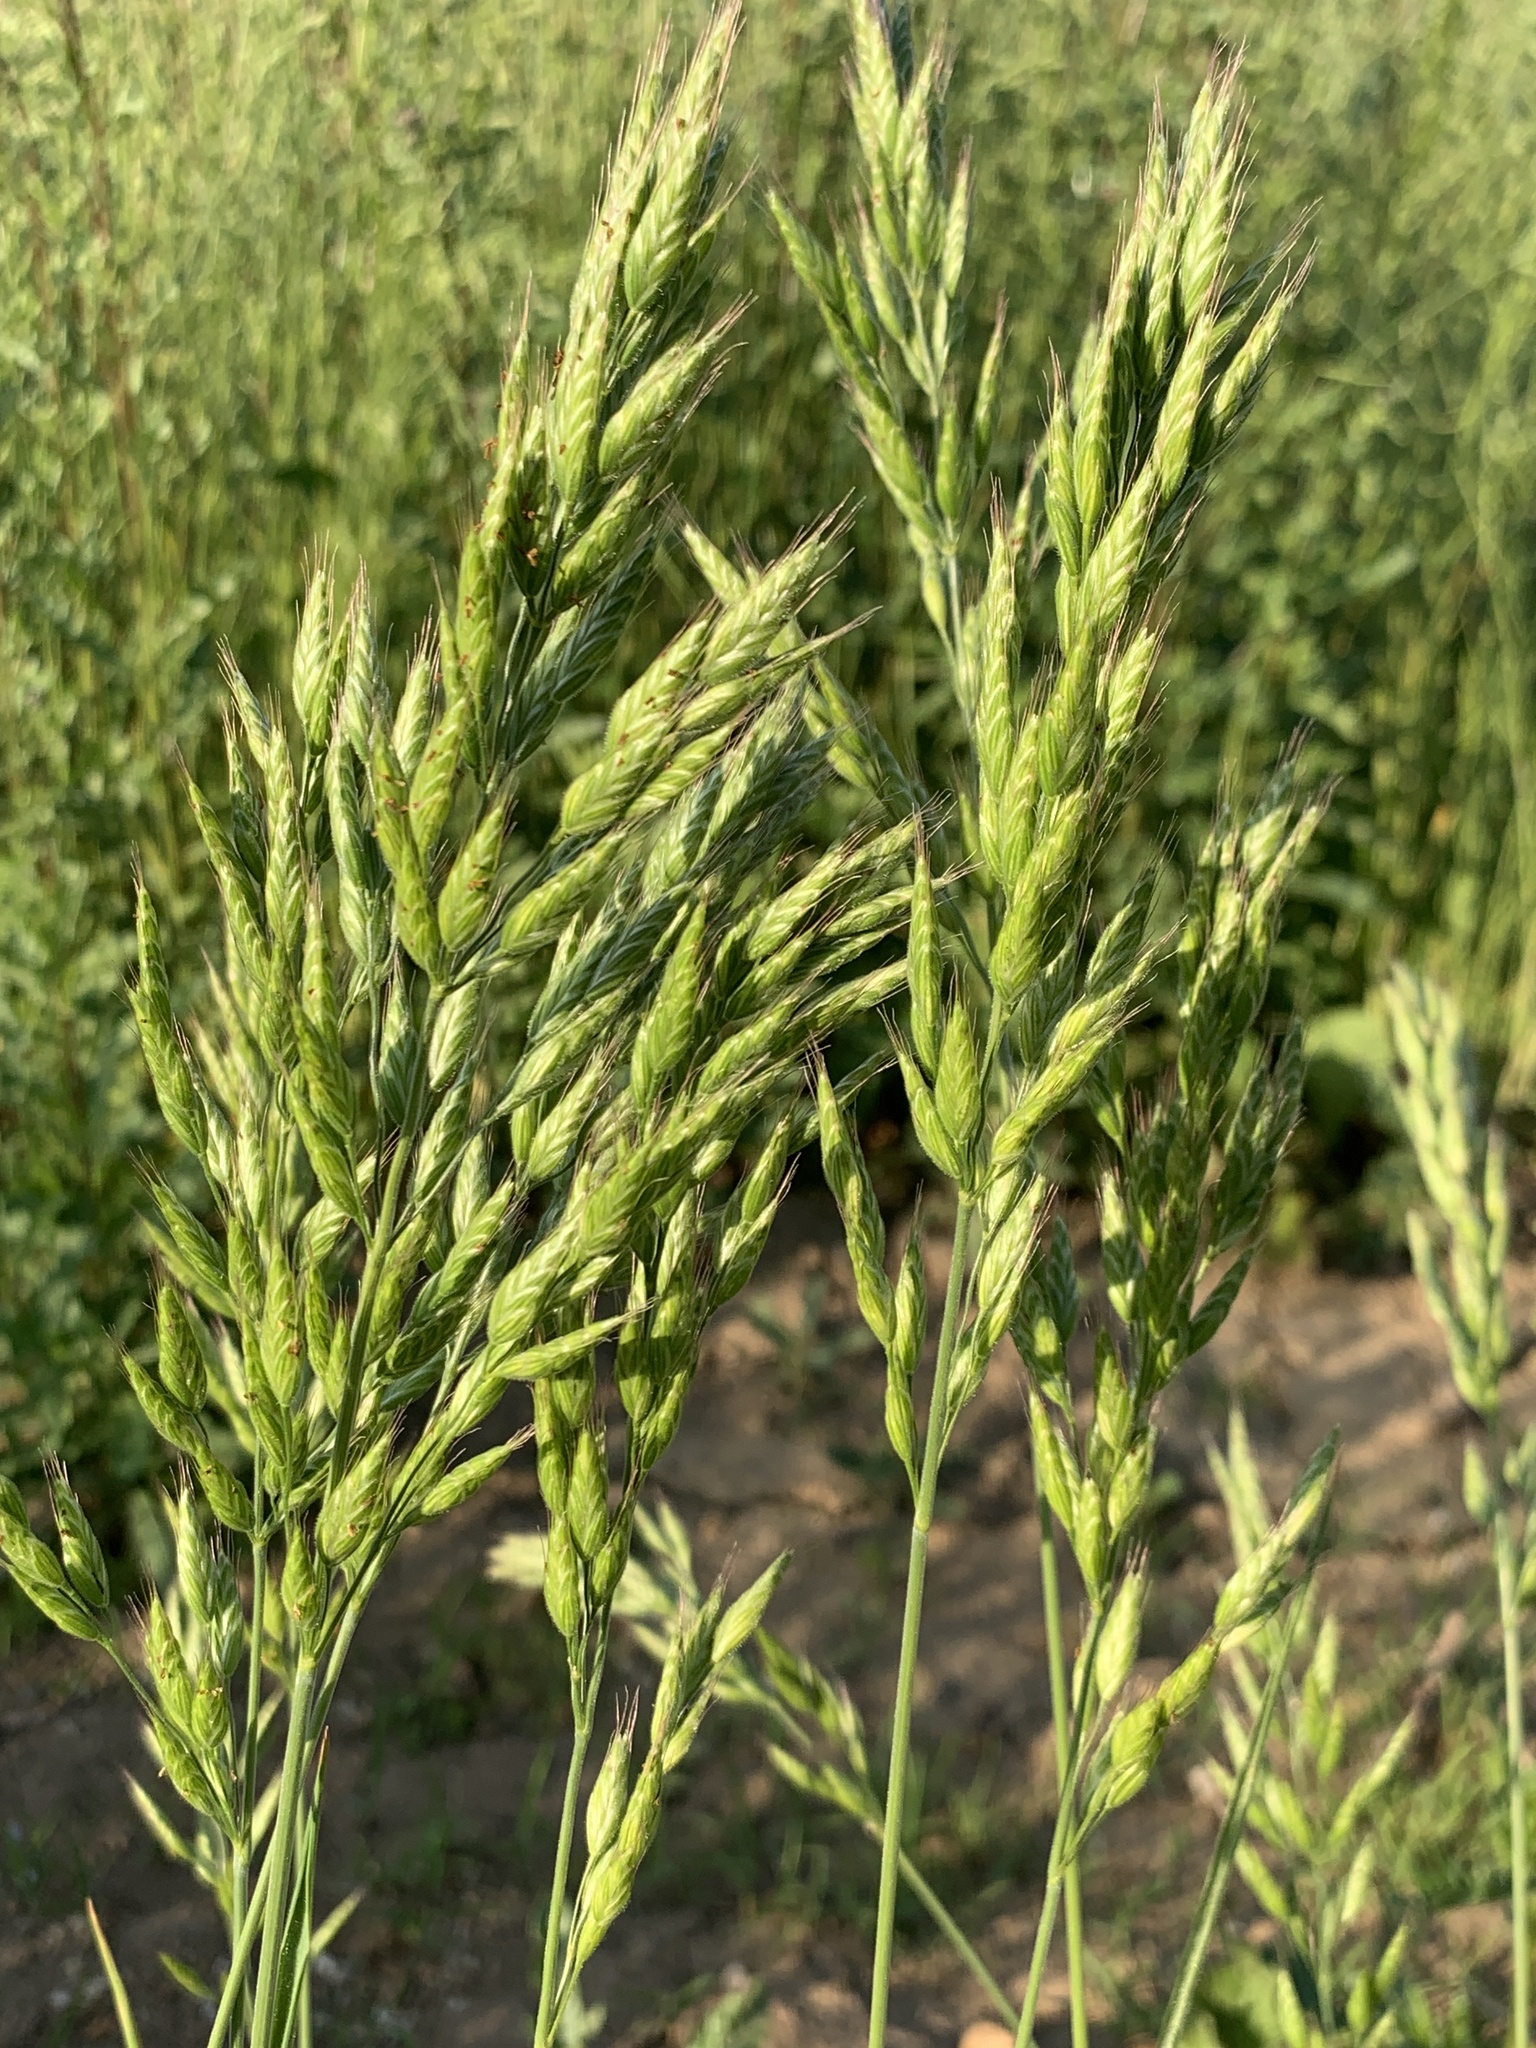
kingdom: Plantae
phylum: Tracheophyta
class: Liliopsida
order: Poales
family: Poaceae
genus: Bromus
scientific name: Bromus hordeaceus
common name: Soft brome
